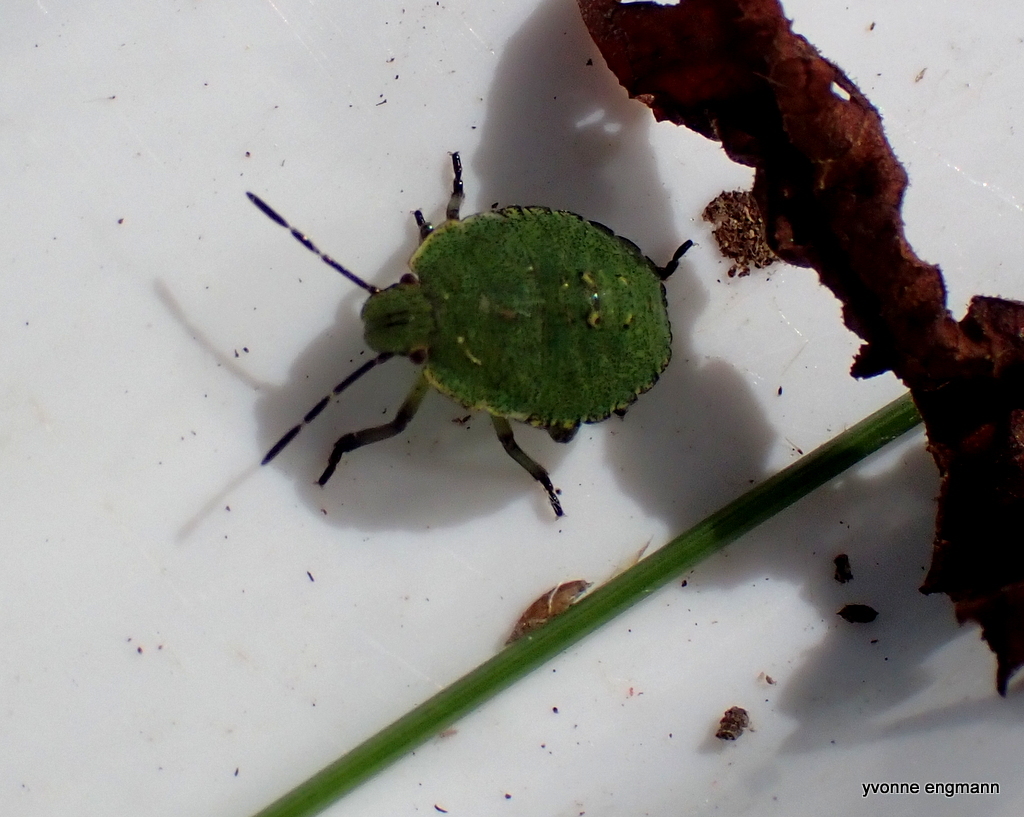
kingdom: Animalia
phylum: Arthropoda
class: Insecta
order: Hemiptera
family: Pentatomidae
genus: Palomena
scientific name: Palomena prasina
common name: Green shieldbug
